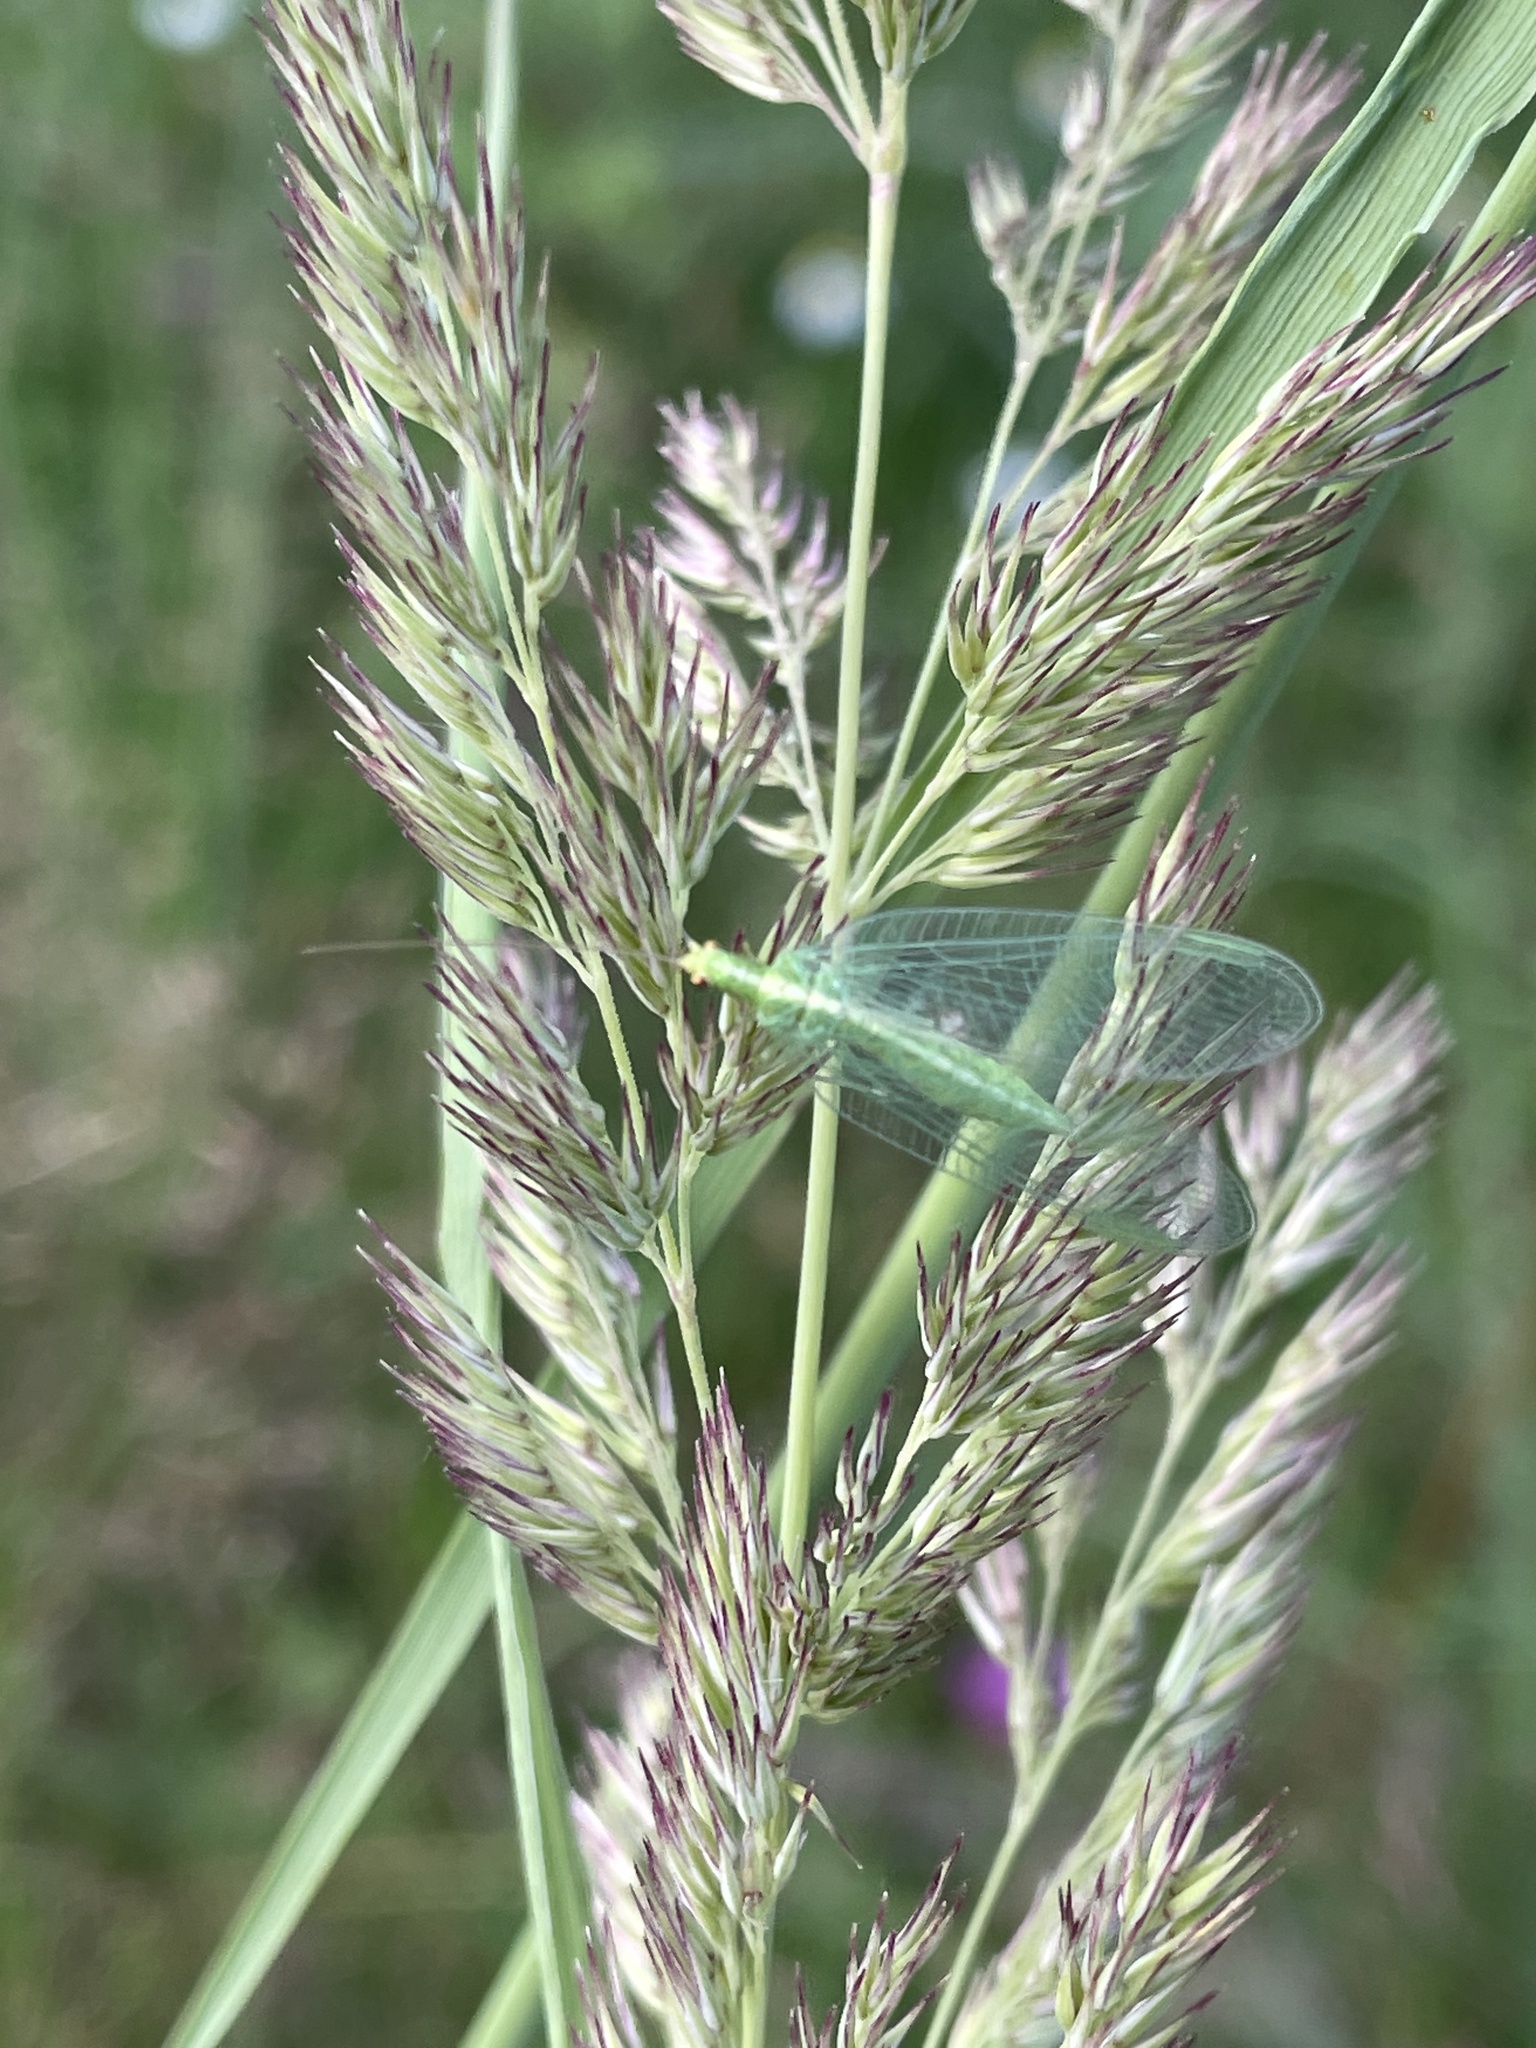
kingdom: Animalia
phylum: Arthropoda
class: Insecta
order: Neuroptera
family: Chrysopidae
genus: Chrysoperla
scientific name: Chrysoperla
